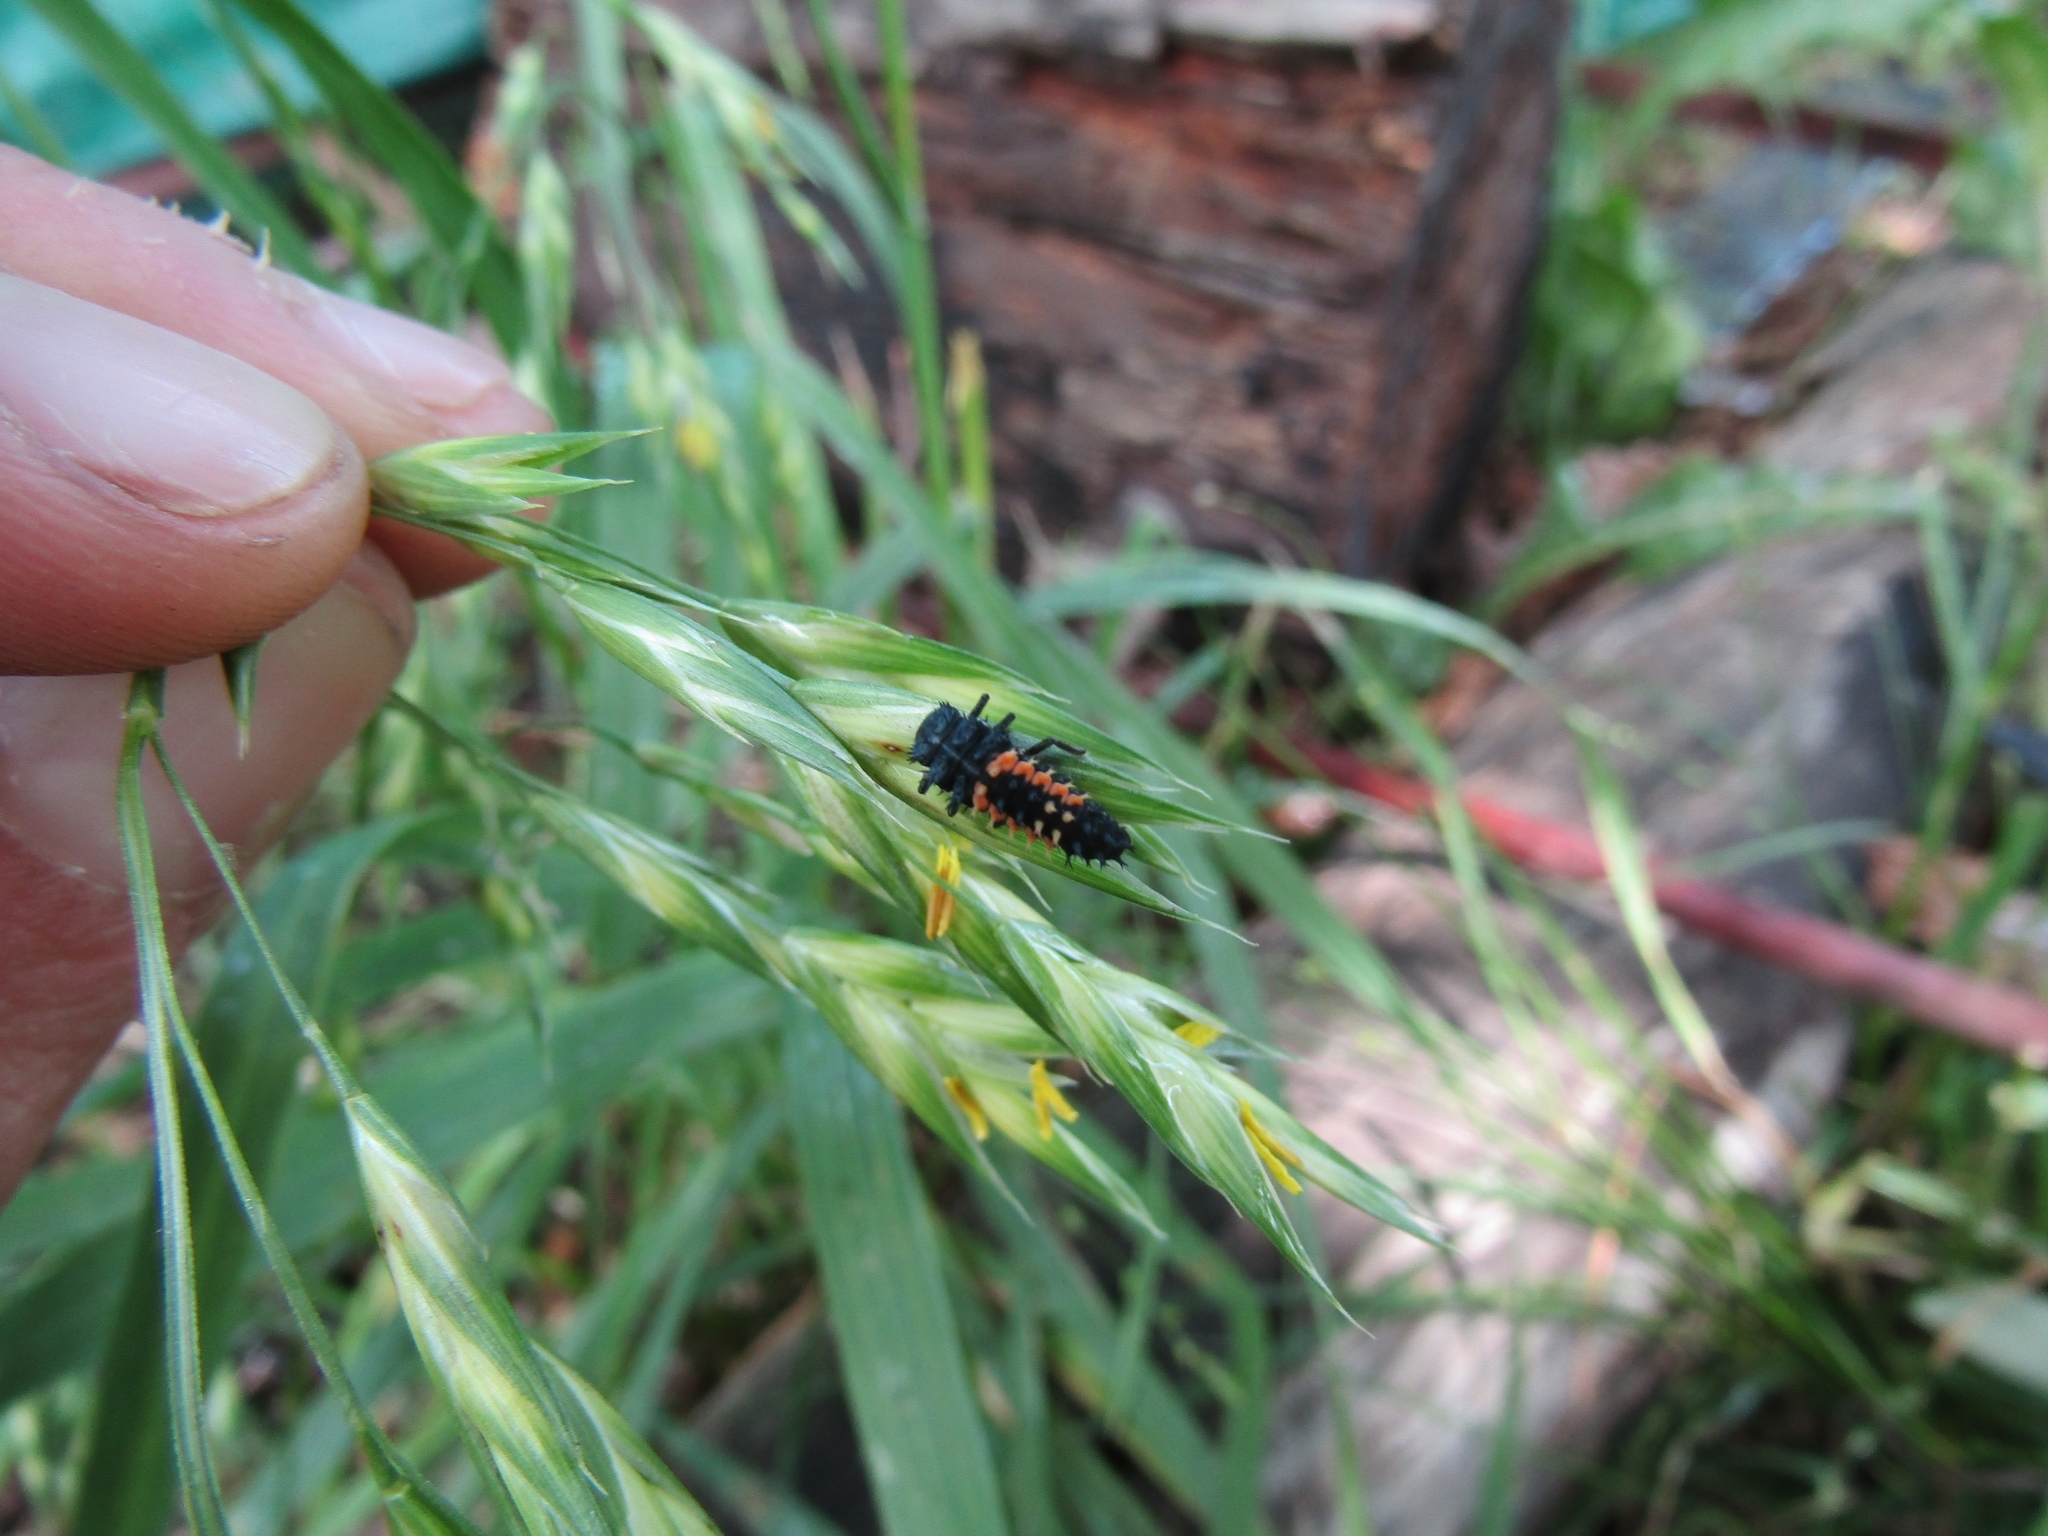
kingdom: Animalia
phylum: Arthropoda
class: Insecta
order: Coleoptera
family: Coccinellidae
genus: Harmonia
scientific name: Harmonia axyridis
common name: Harlequin ladybird
